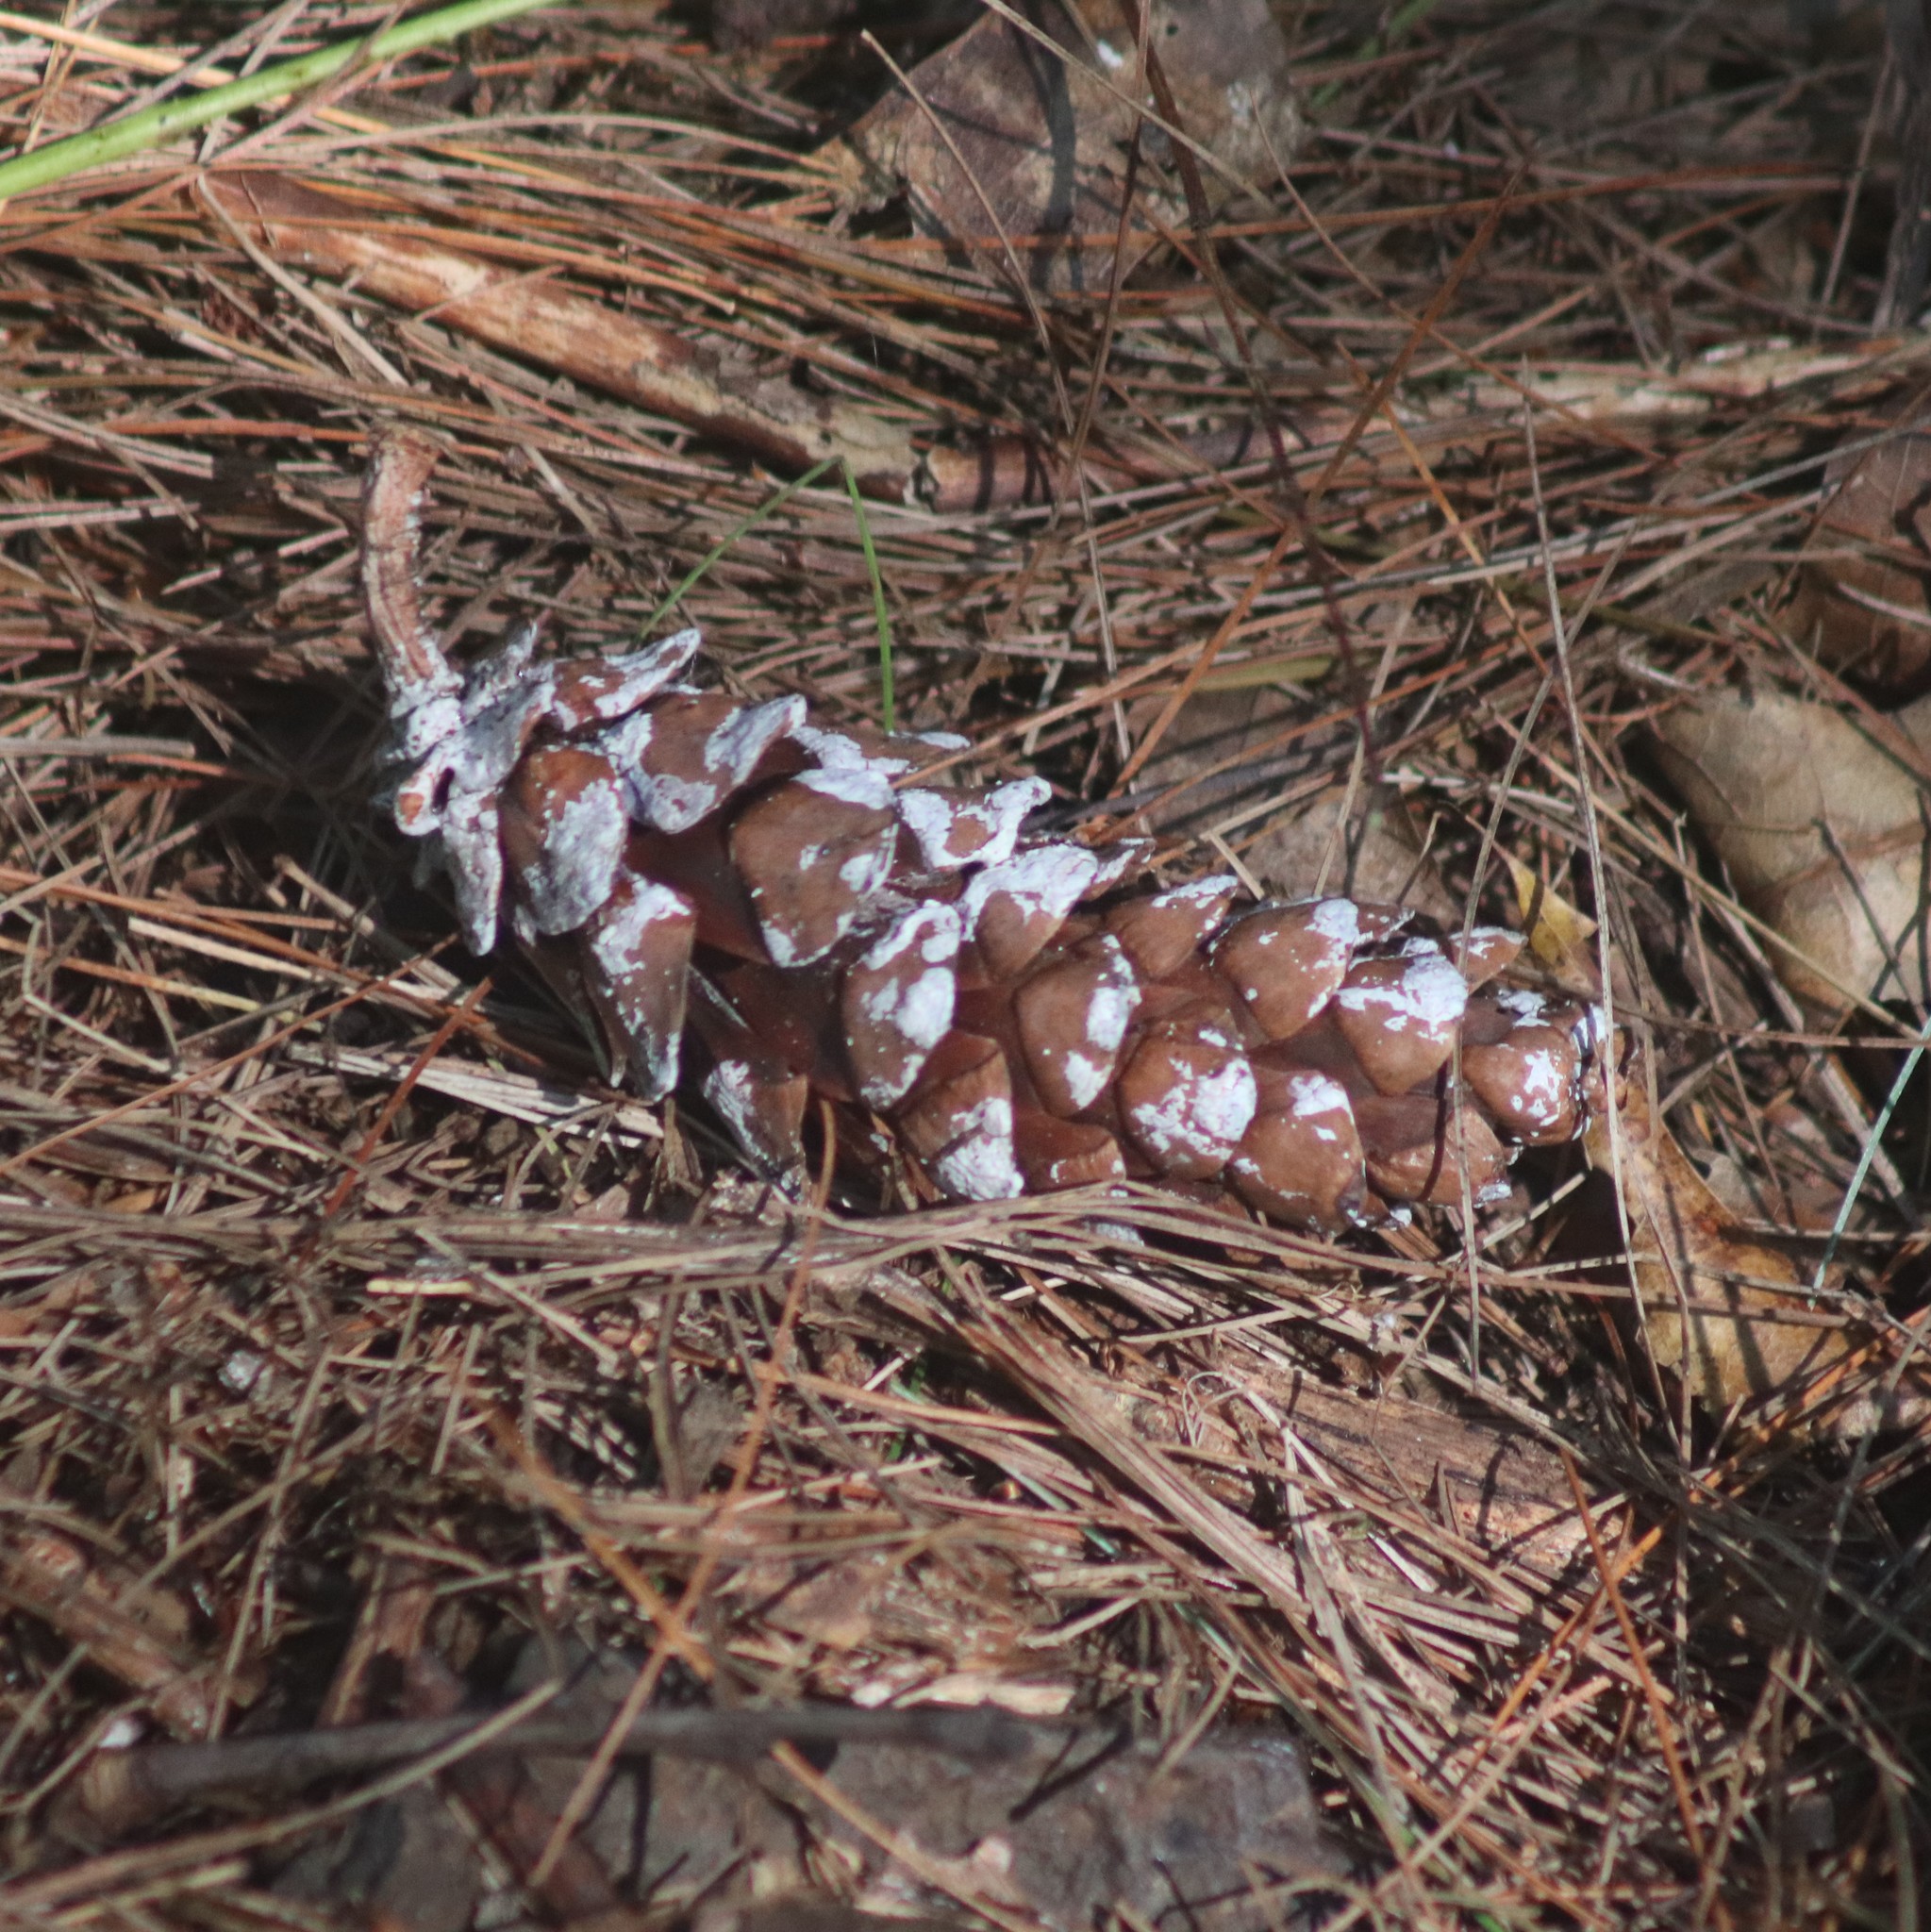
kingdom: Plantae
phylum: Tracheophyta
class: Pinopsida
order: Pinales
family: Pinaceae
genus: Pinus
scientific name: Pinus strobus
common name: Weymouth pine
